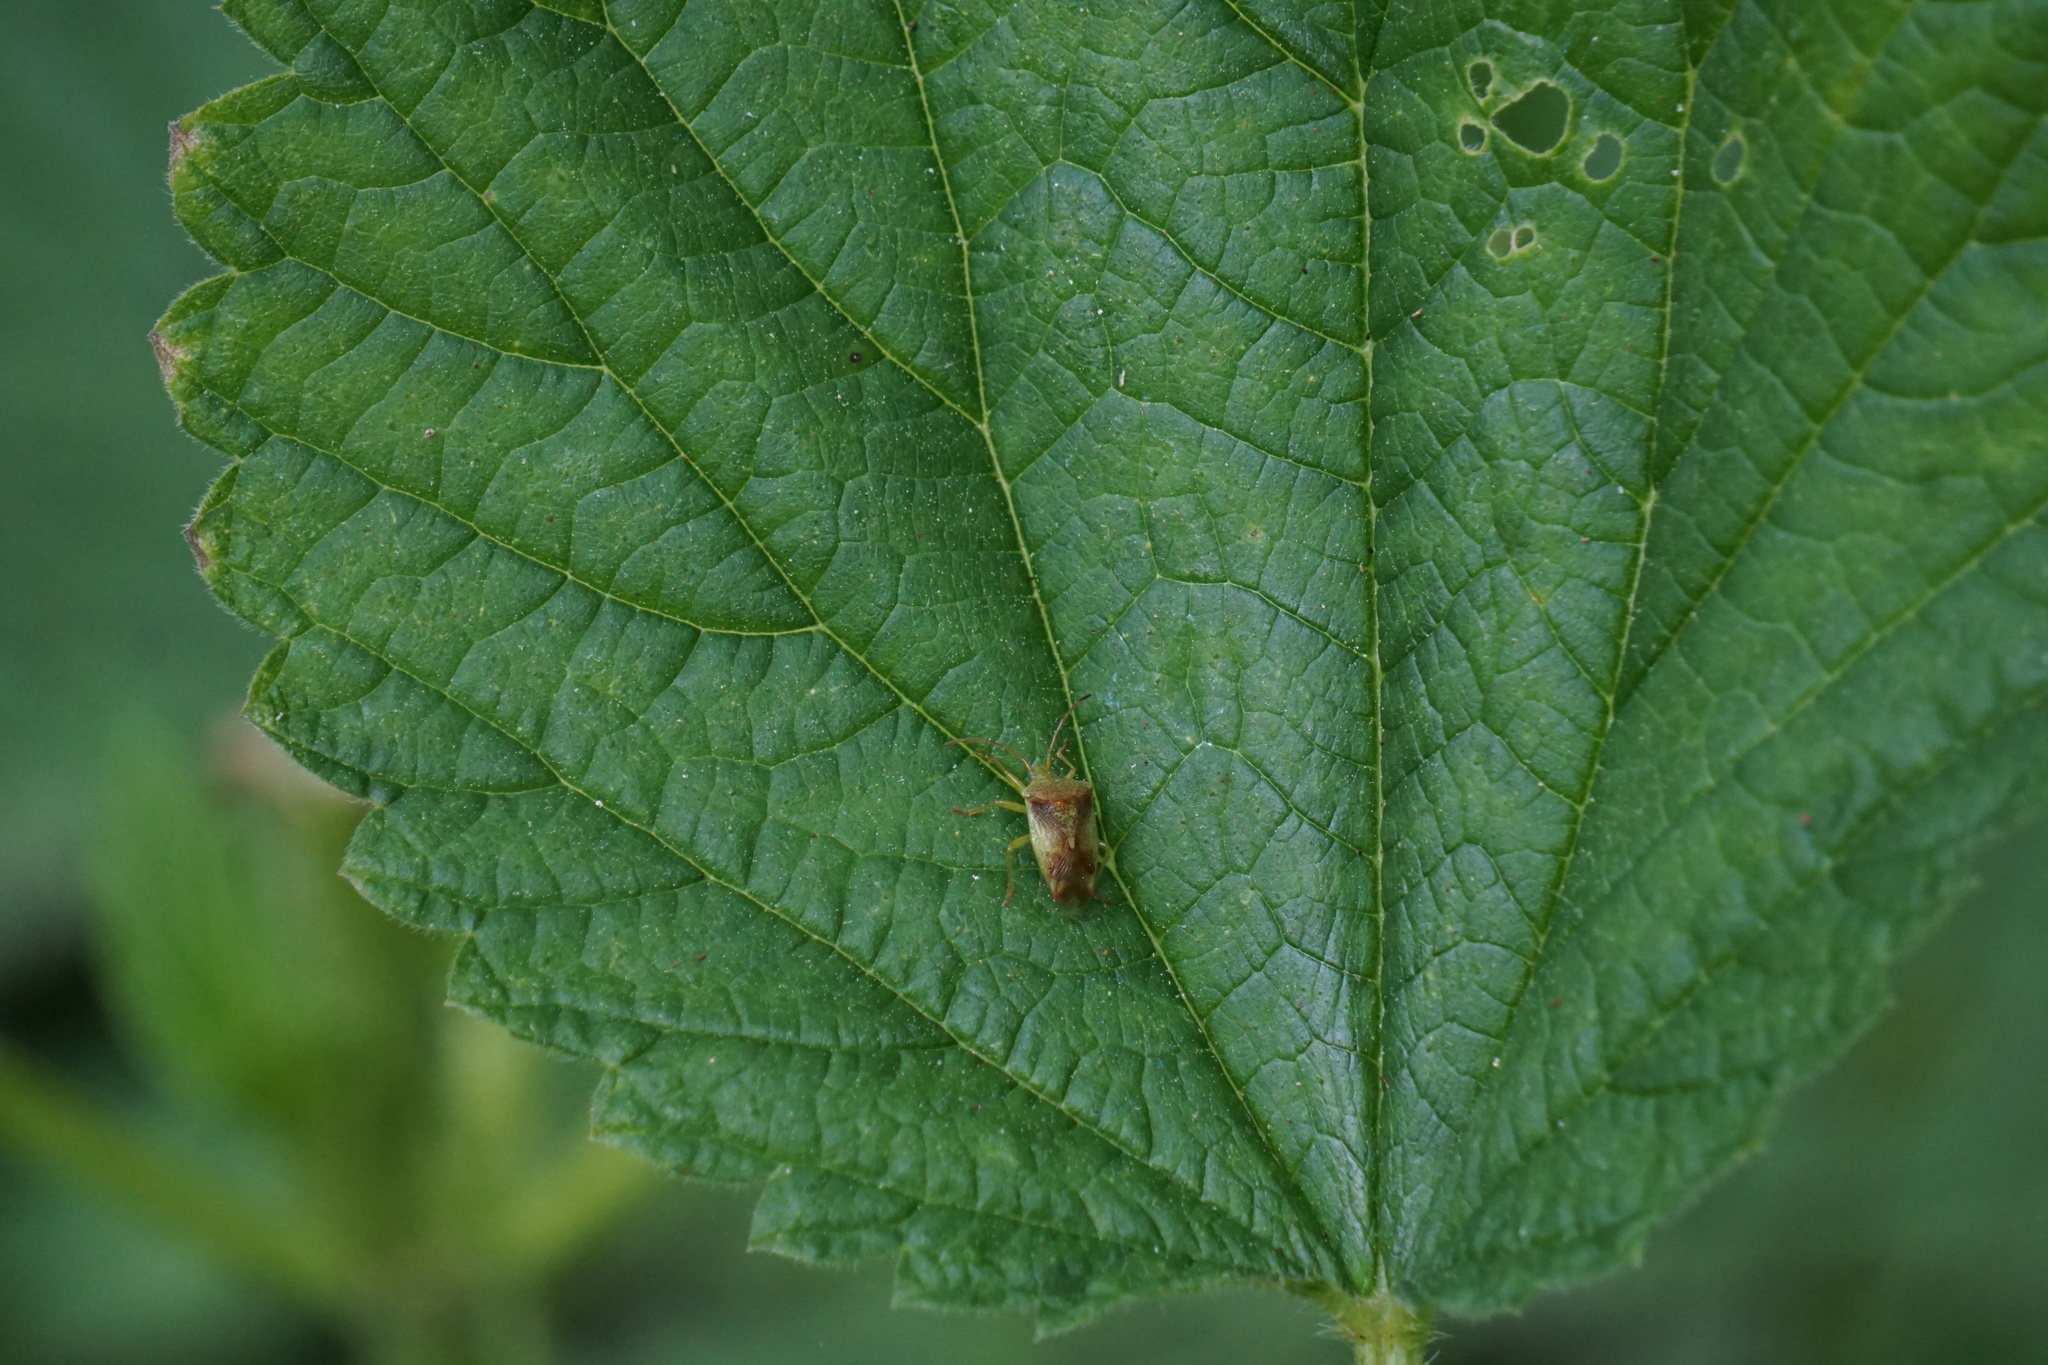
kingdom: Animalia
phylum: Arthropoda
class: Insecta
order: Hemiptera
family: Acanthosomatidae
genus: Elasmostethus
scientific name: Elasmostethus cruciatus
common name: Red-cross shield bug
